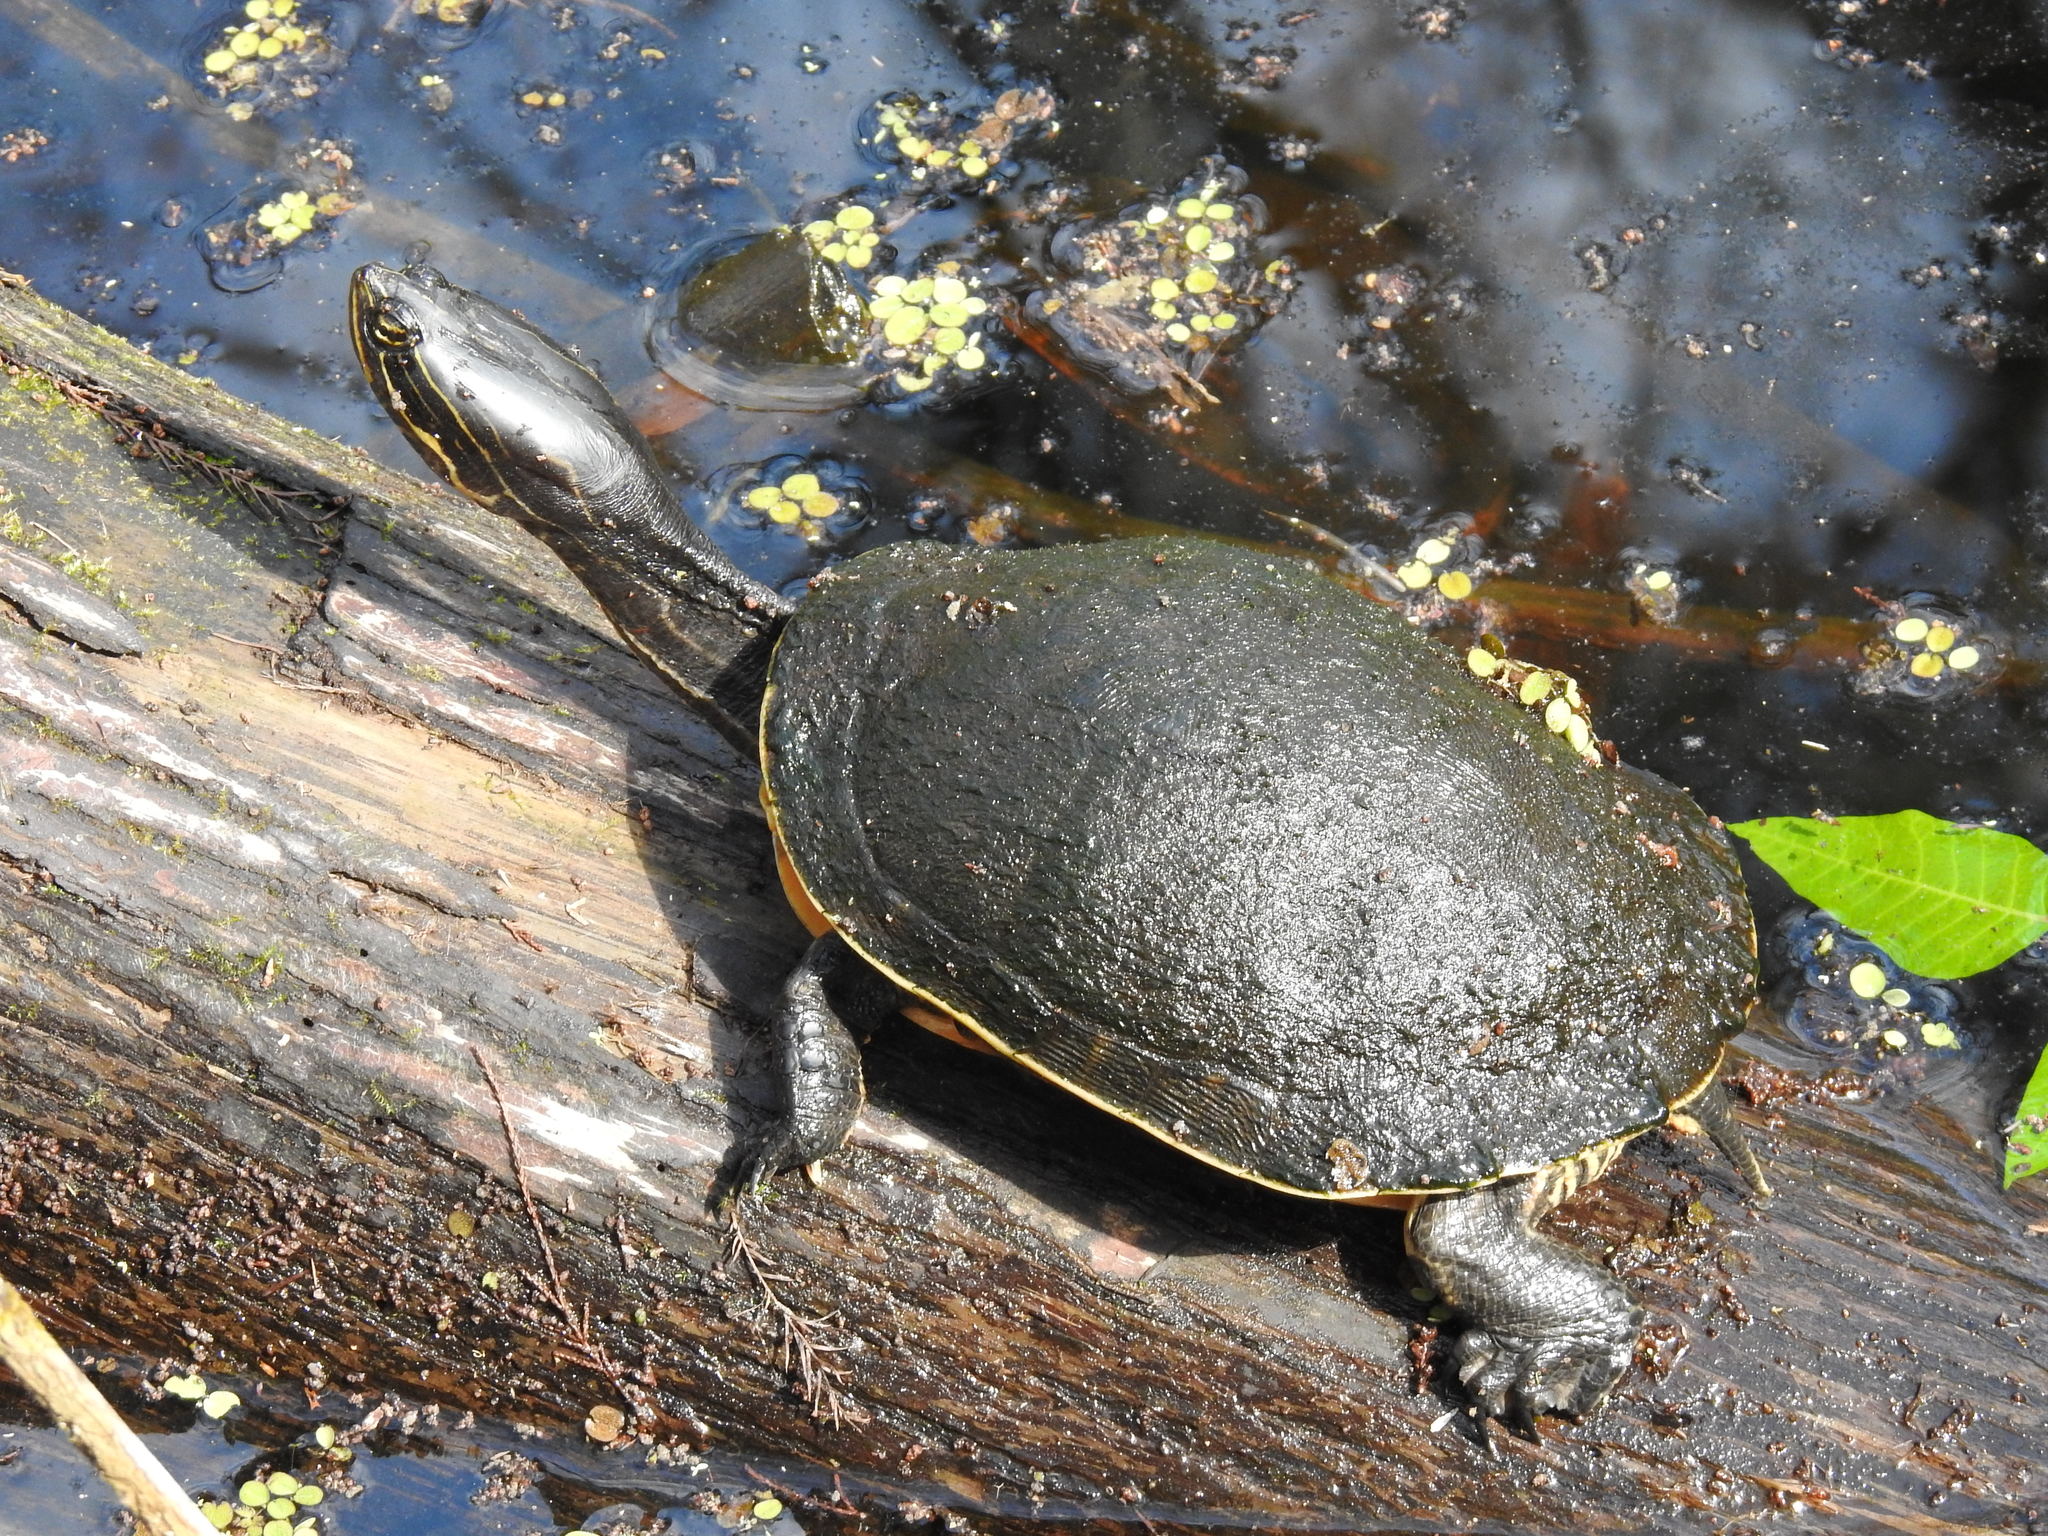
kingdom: Animalia
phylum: Chordata
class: Testudines
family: Emydidae
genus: Deirochelys
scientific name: Deirochelys reticularia
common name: Chicken turtle
